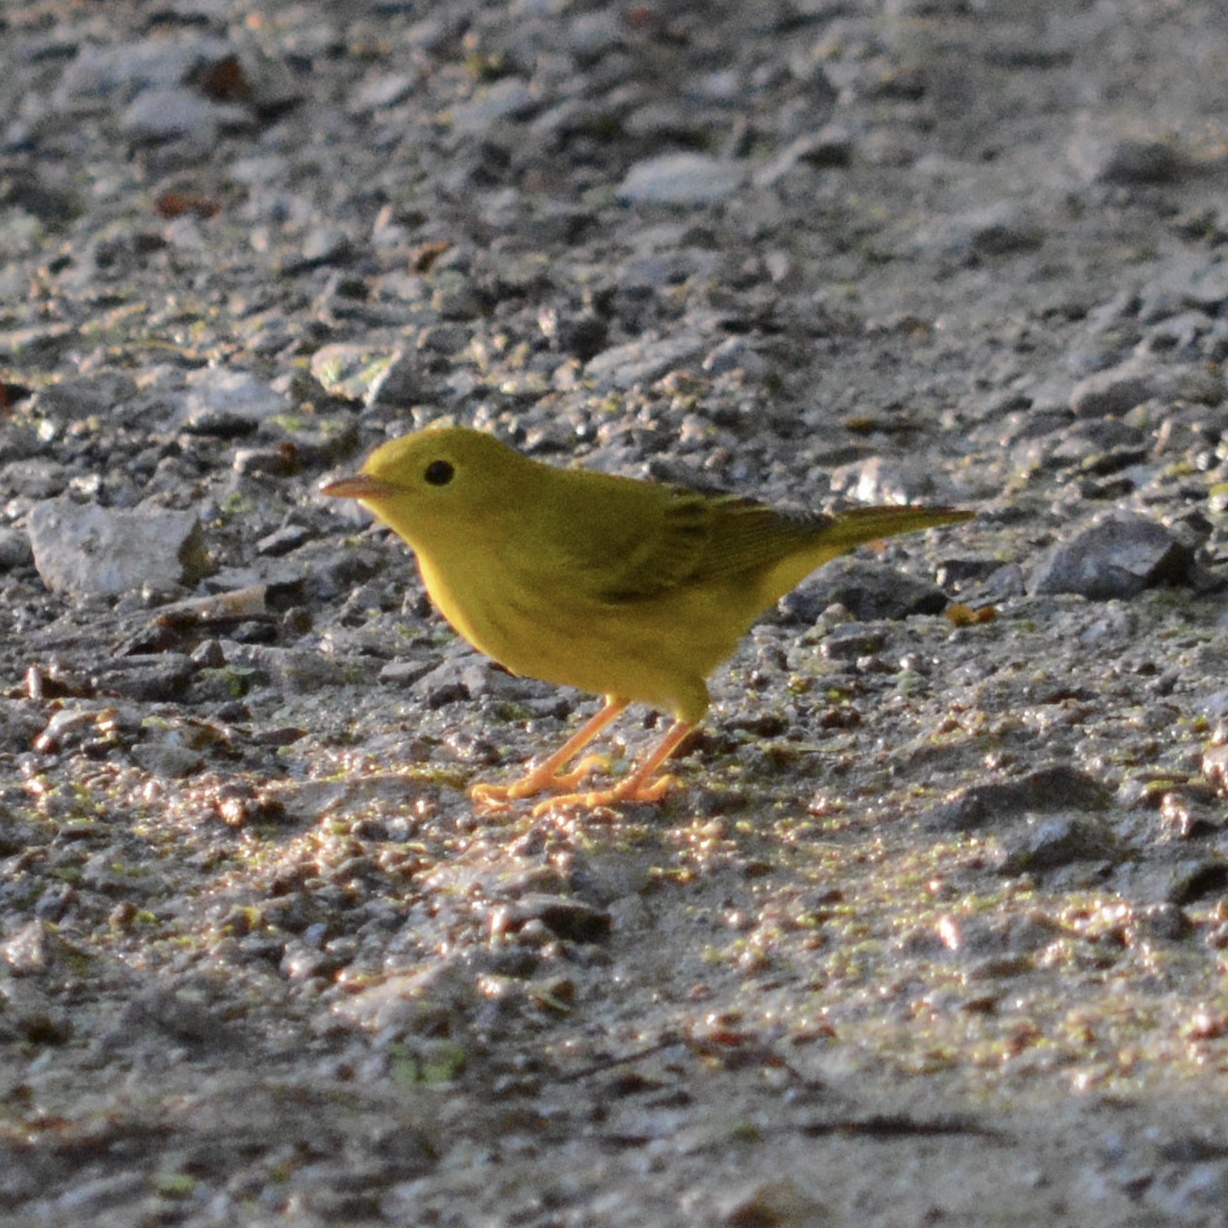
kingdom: Animalia
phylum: Chordata
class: Aves
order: Passeriformes
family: Parulidae
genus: Setophaga
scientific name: Setophaga petechia
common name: Yellow warbler
